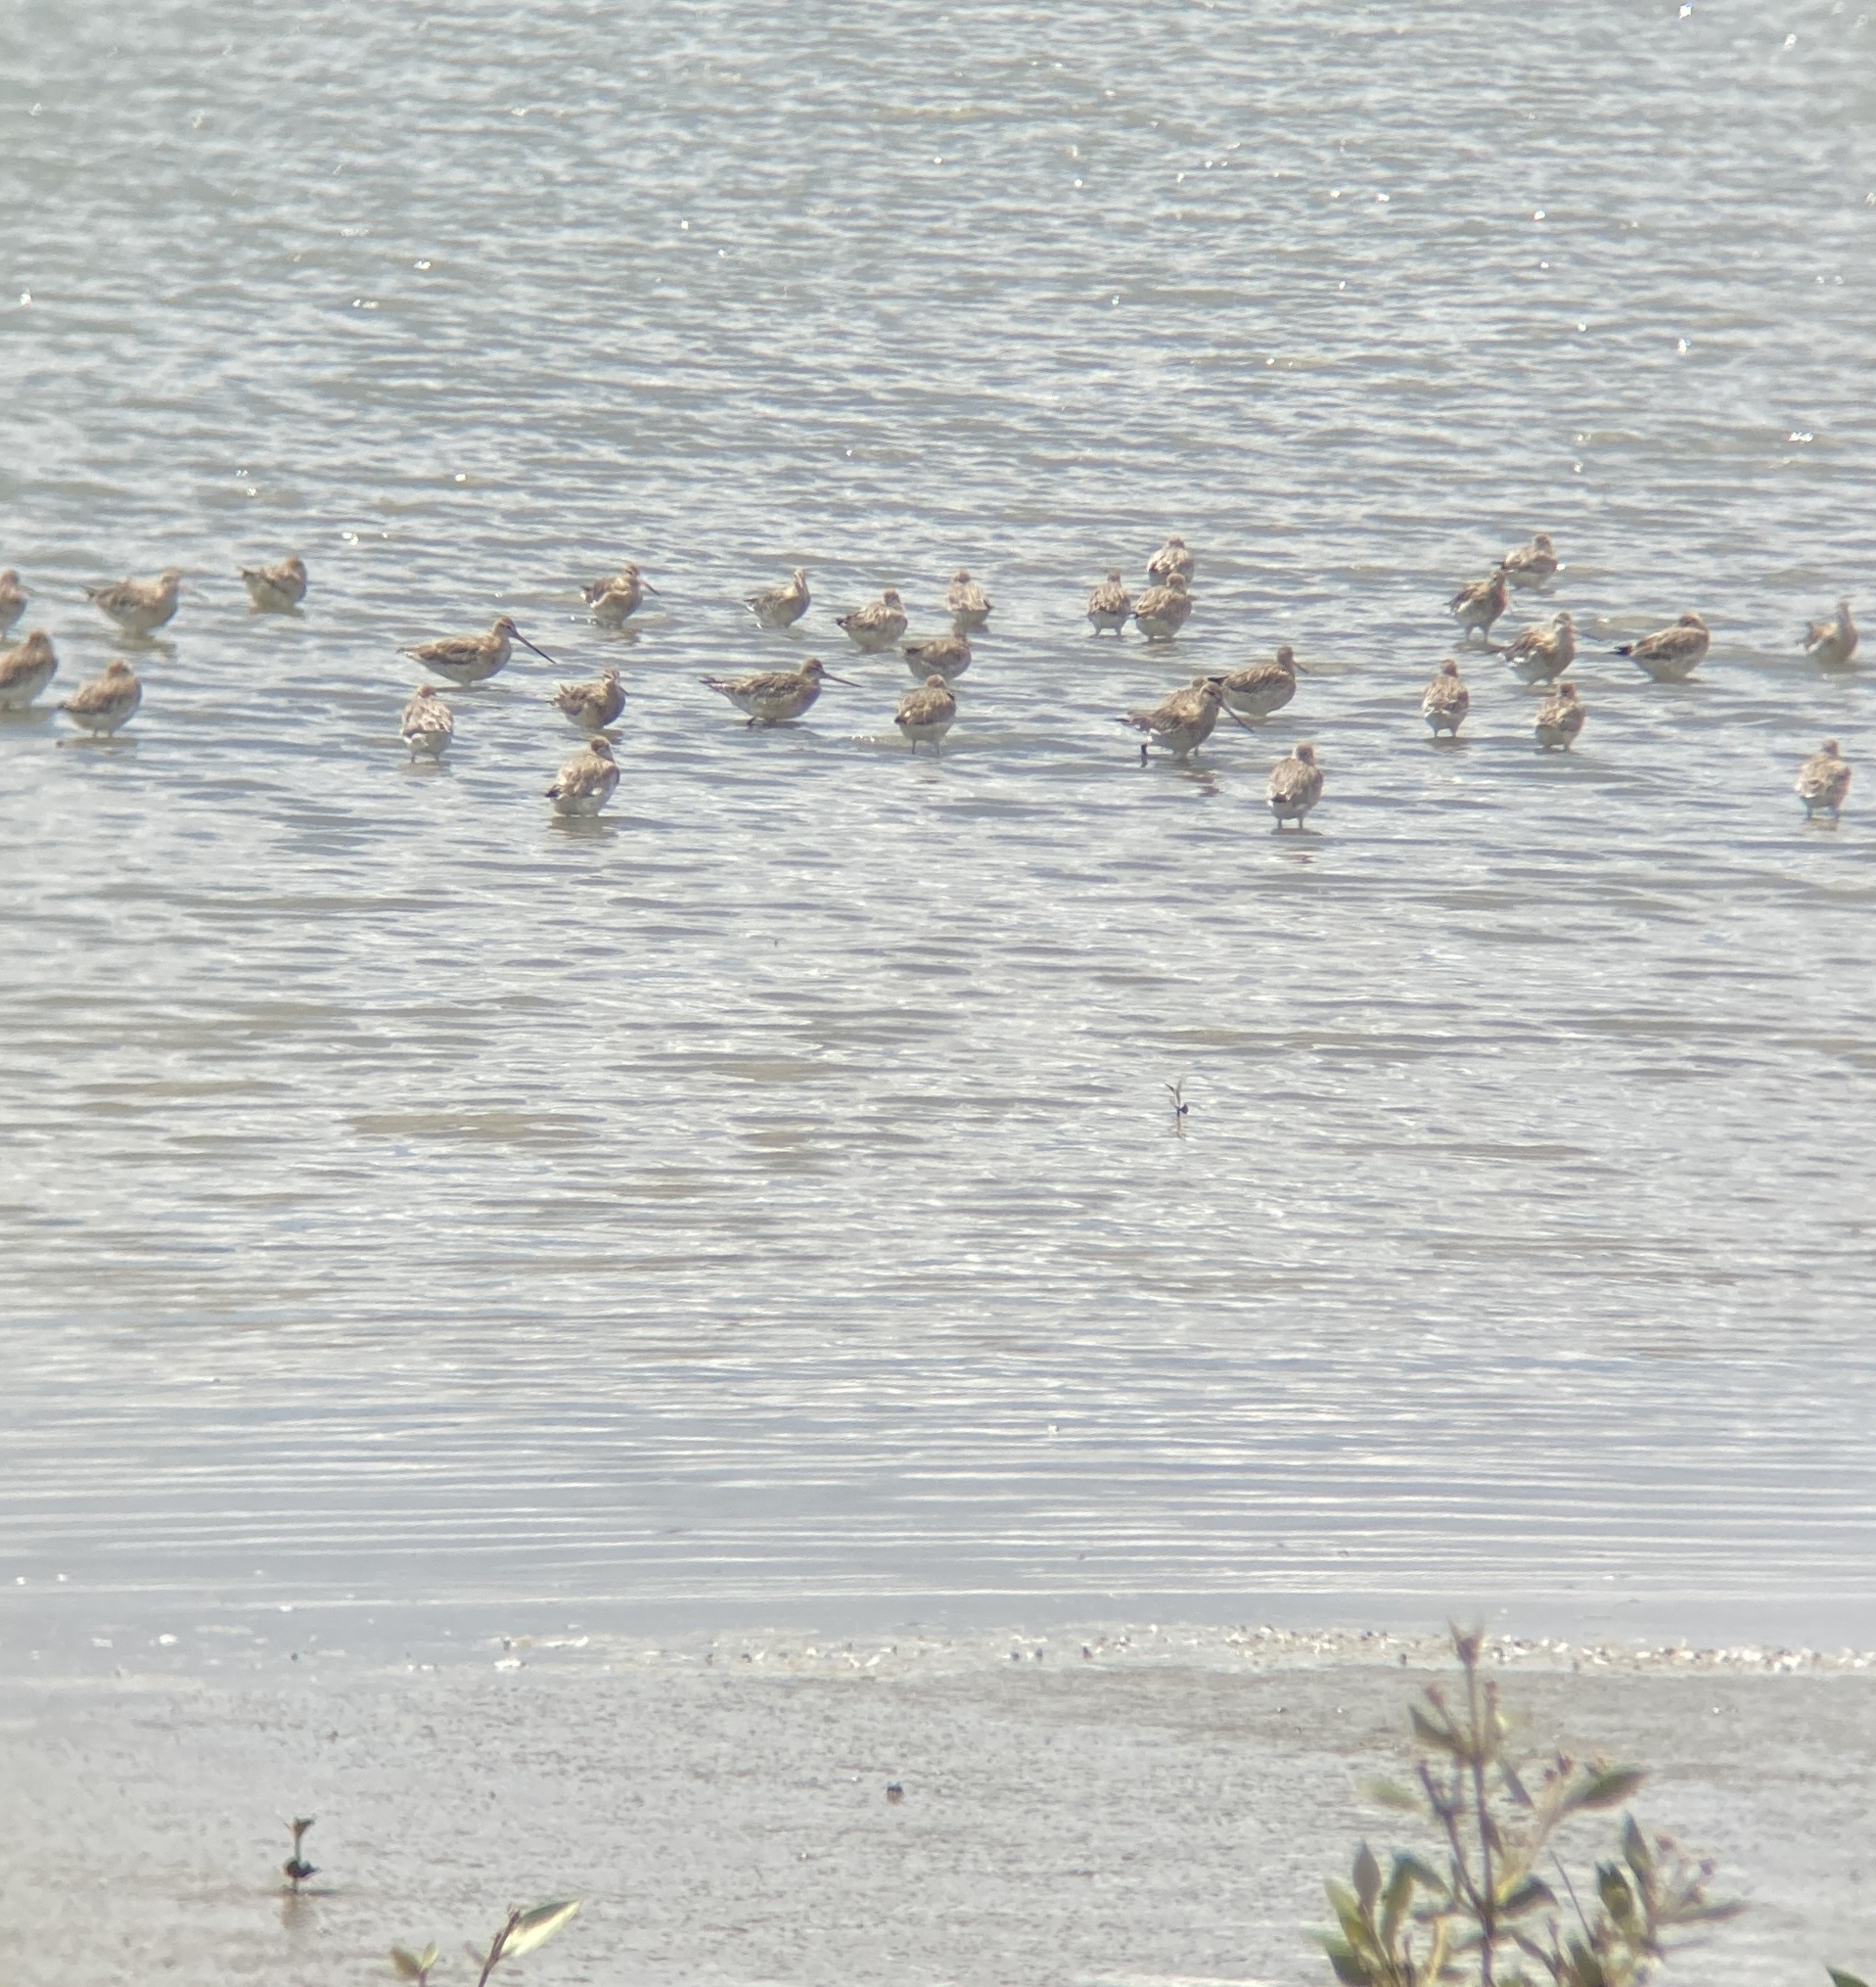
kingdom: Animalia
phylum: Chordata
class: Aves
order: Charadriiformes
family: Scolopacidae
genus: Limosa
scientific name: Limosa lapponica
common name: Bar-tailed godwit
